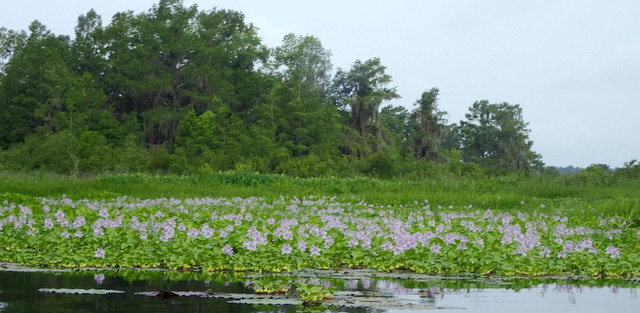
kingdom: Plantae
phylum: Tracheophyta
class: Liliopsida
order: Commelinales
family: Pontederiaceae
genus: Pontederia
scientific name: Pontederia crassipes
